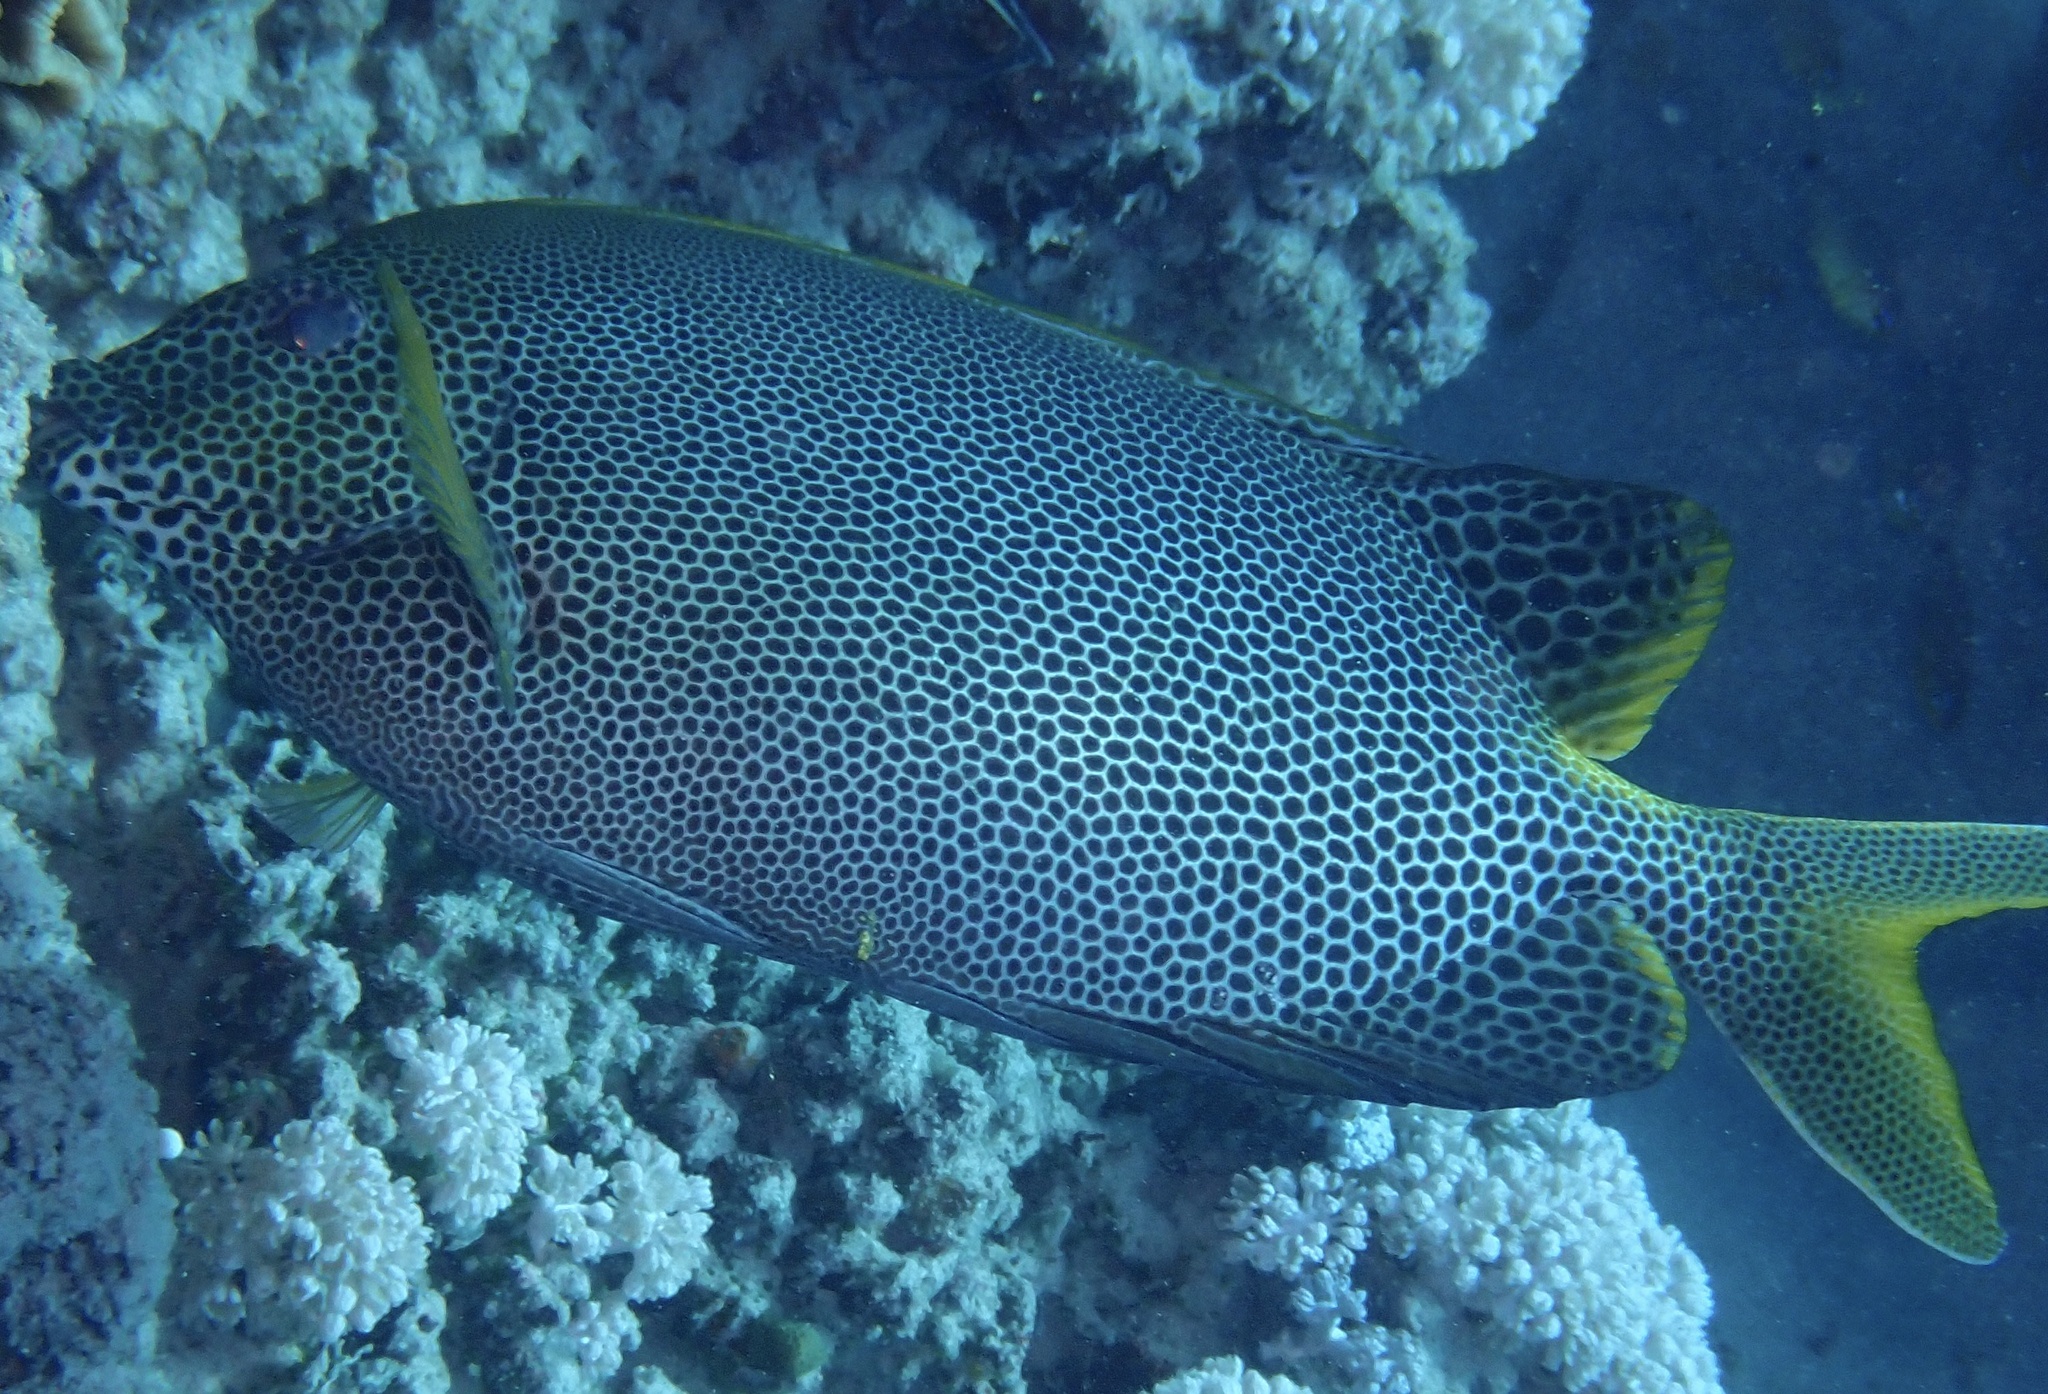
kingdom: Animalia
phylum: Chordata
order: Perciformes
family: Siganidae
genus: Siganus
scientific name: Siganus stellatus
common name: Brown-spotted spinefoot
